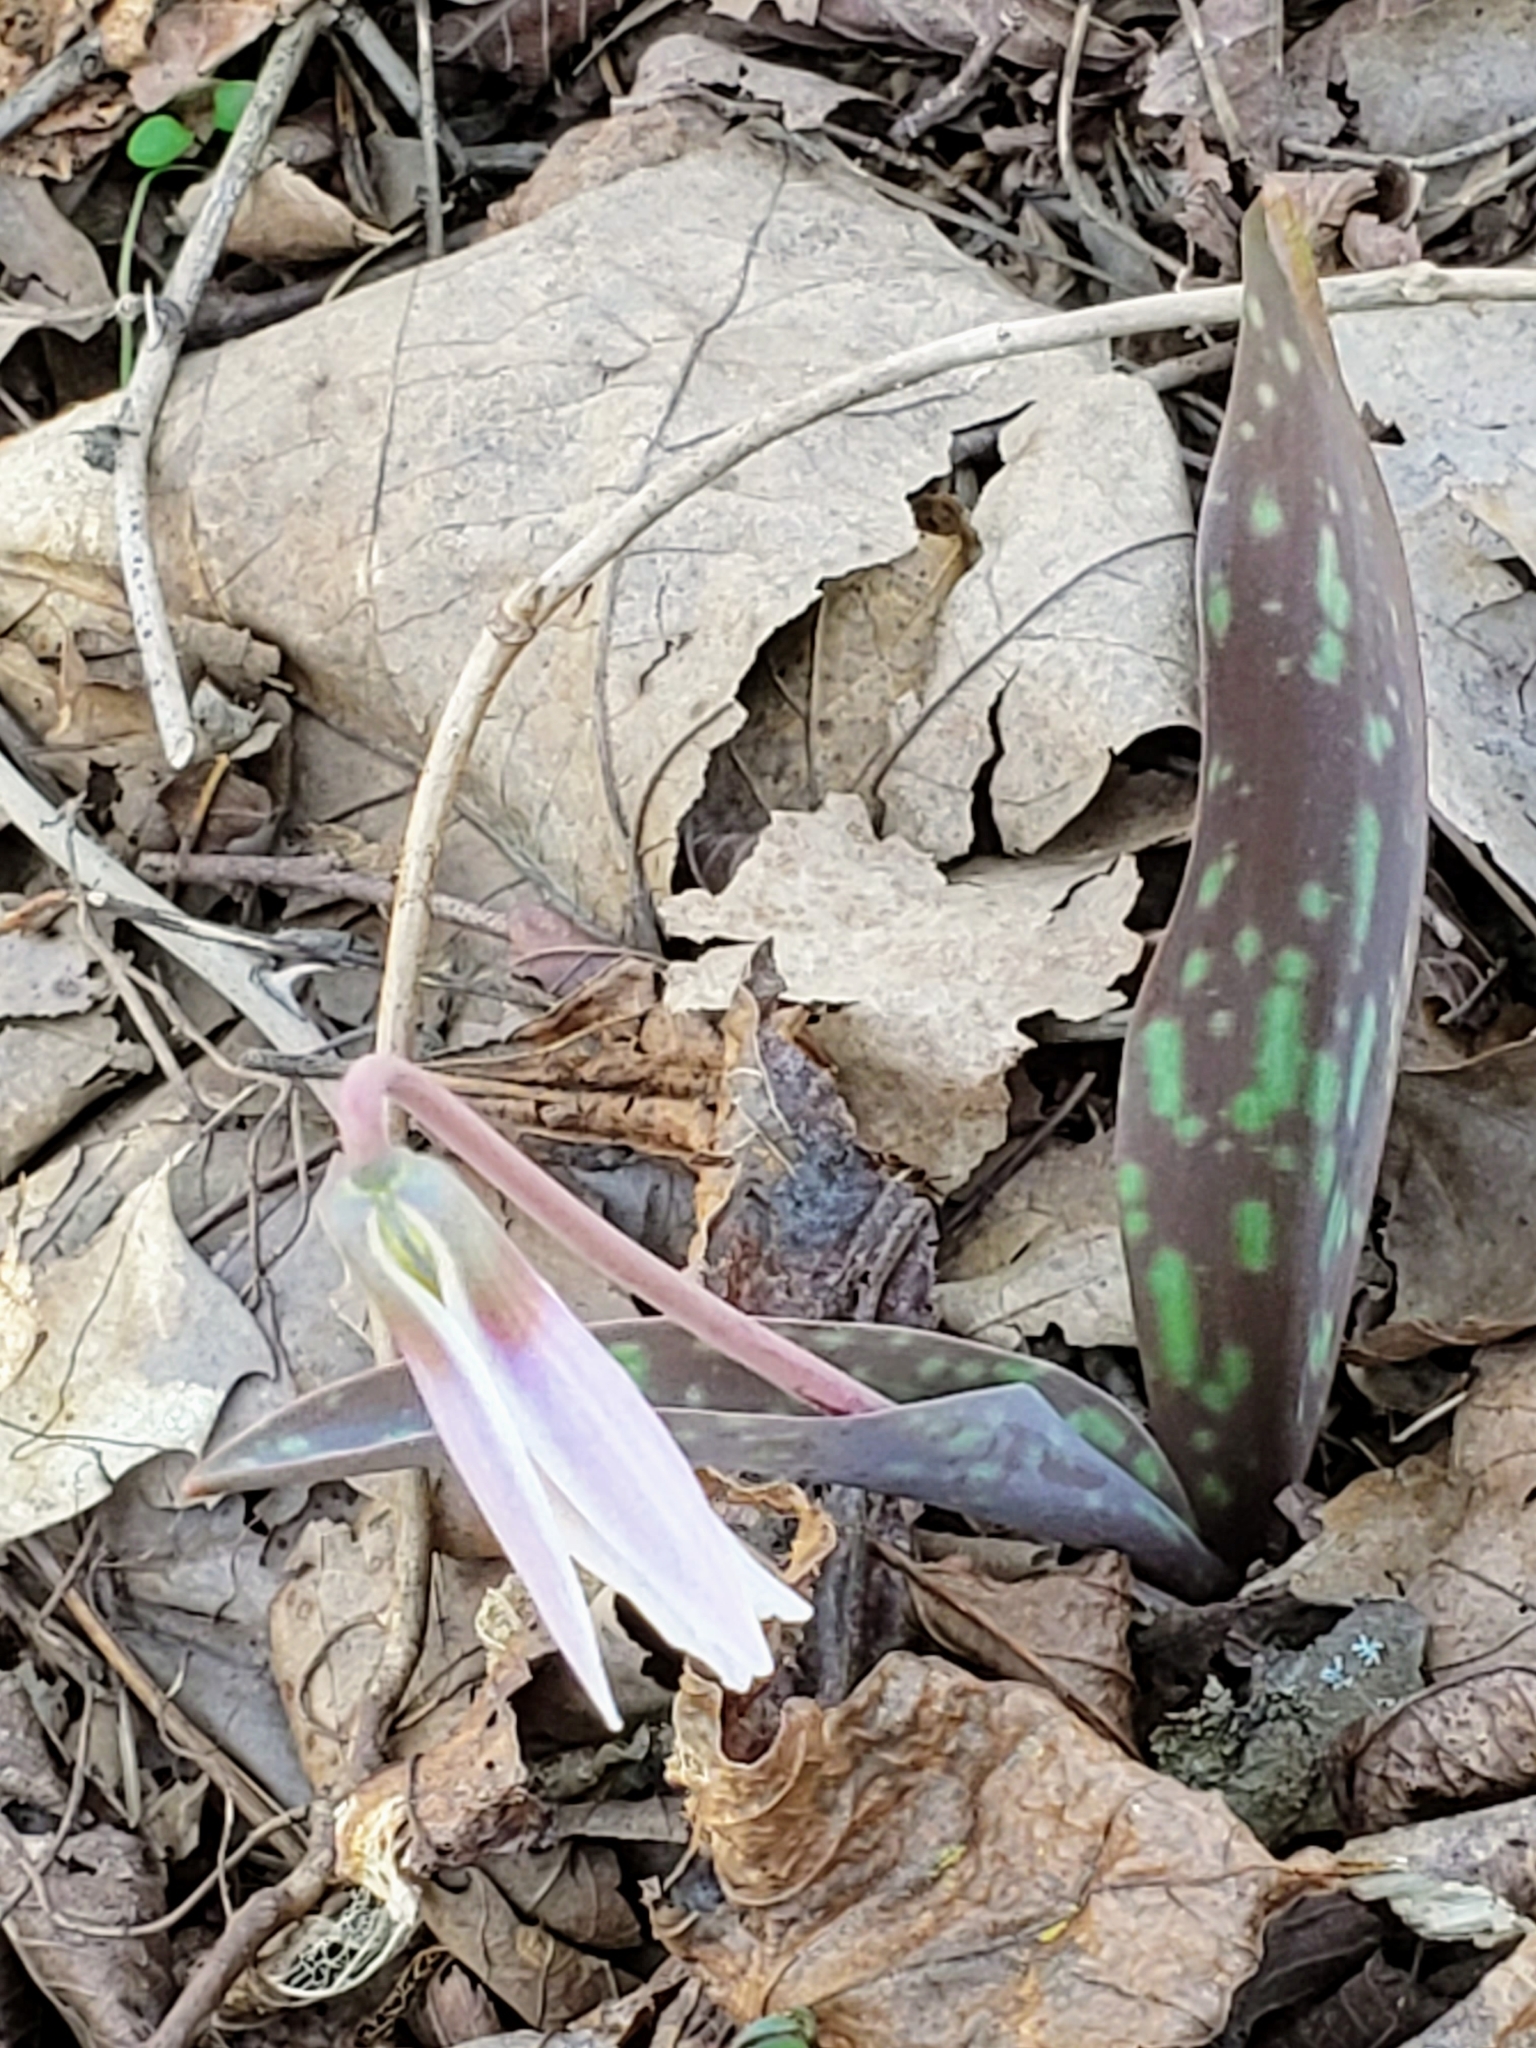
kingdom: Plantae
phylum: Tracheophyta
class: Liliopsida
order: Liliales
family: Liliaceae
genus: Erythronium
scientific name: Erythronium albidum
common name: White trout-lily
